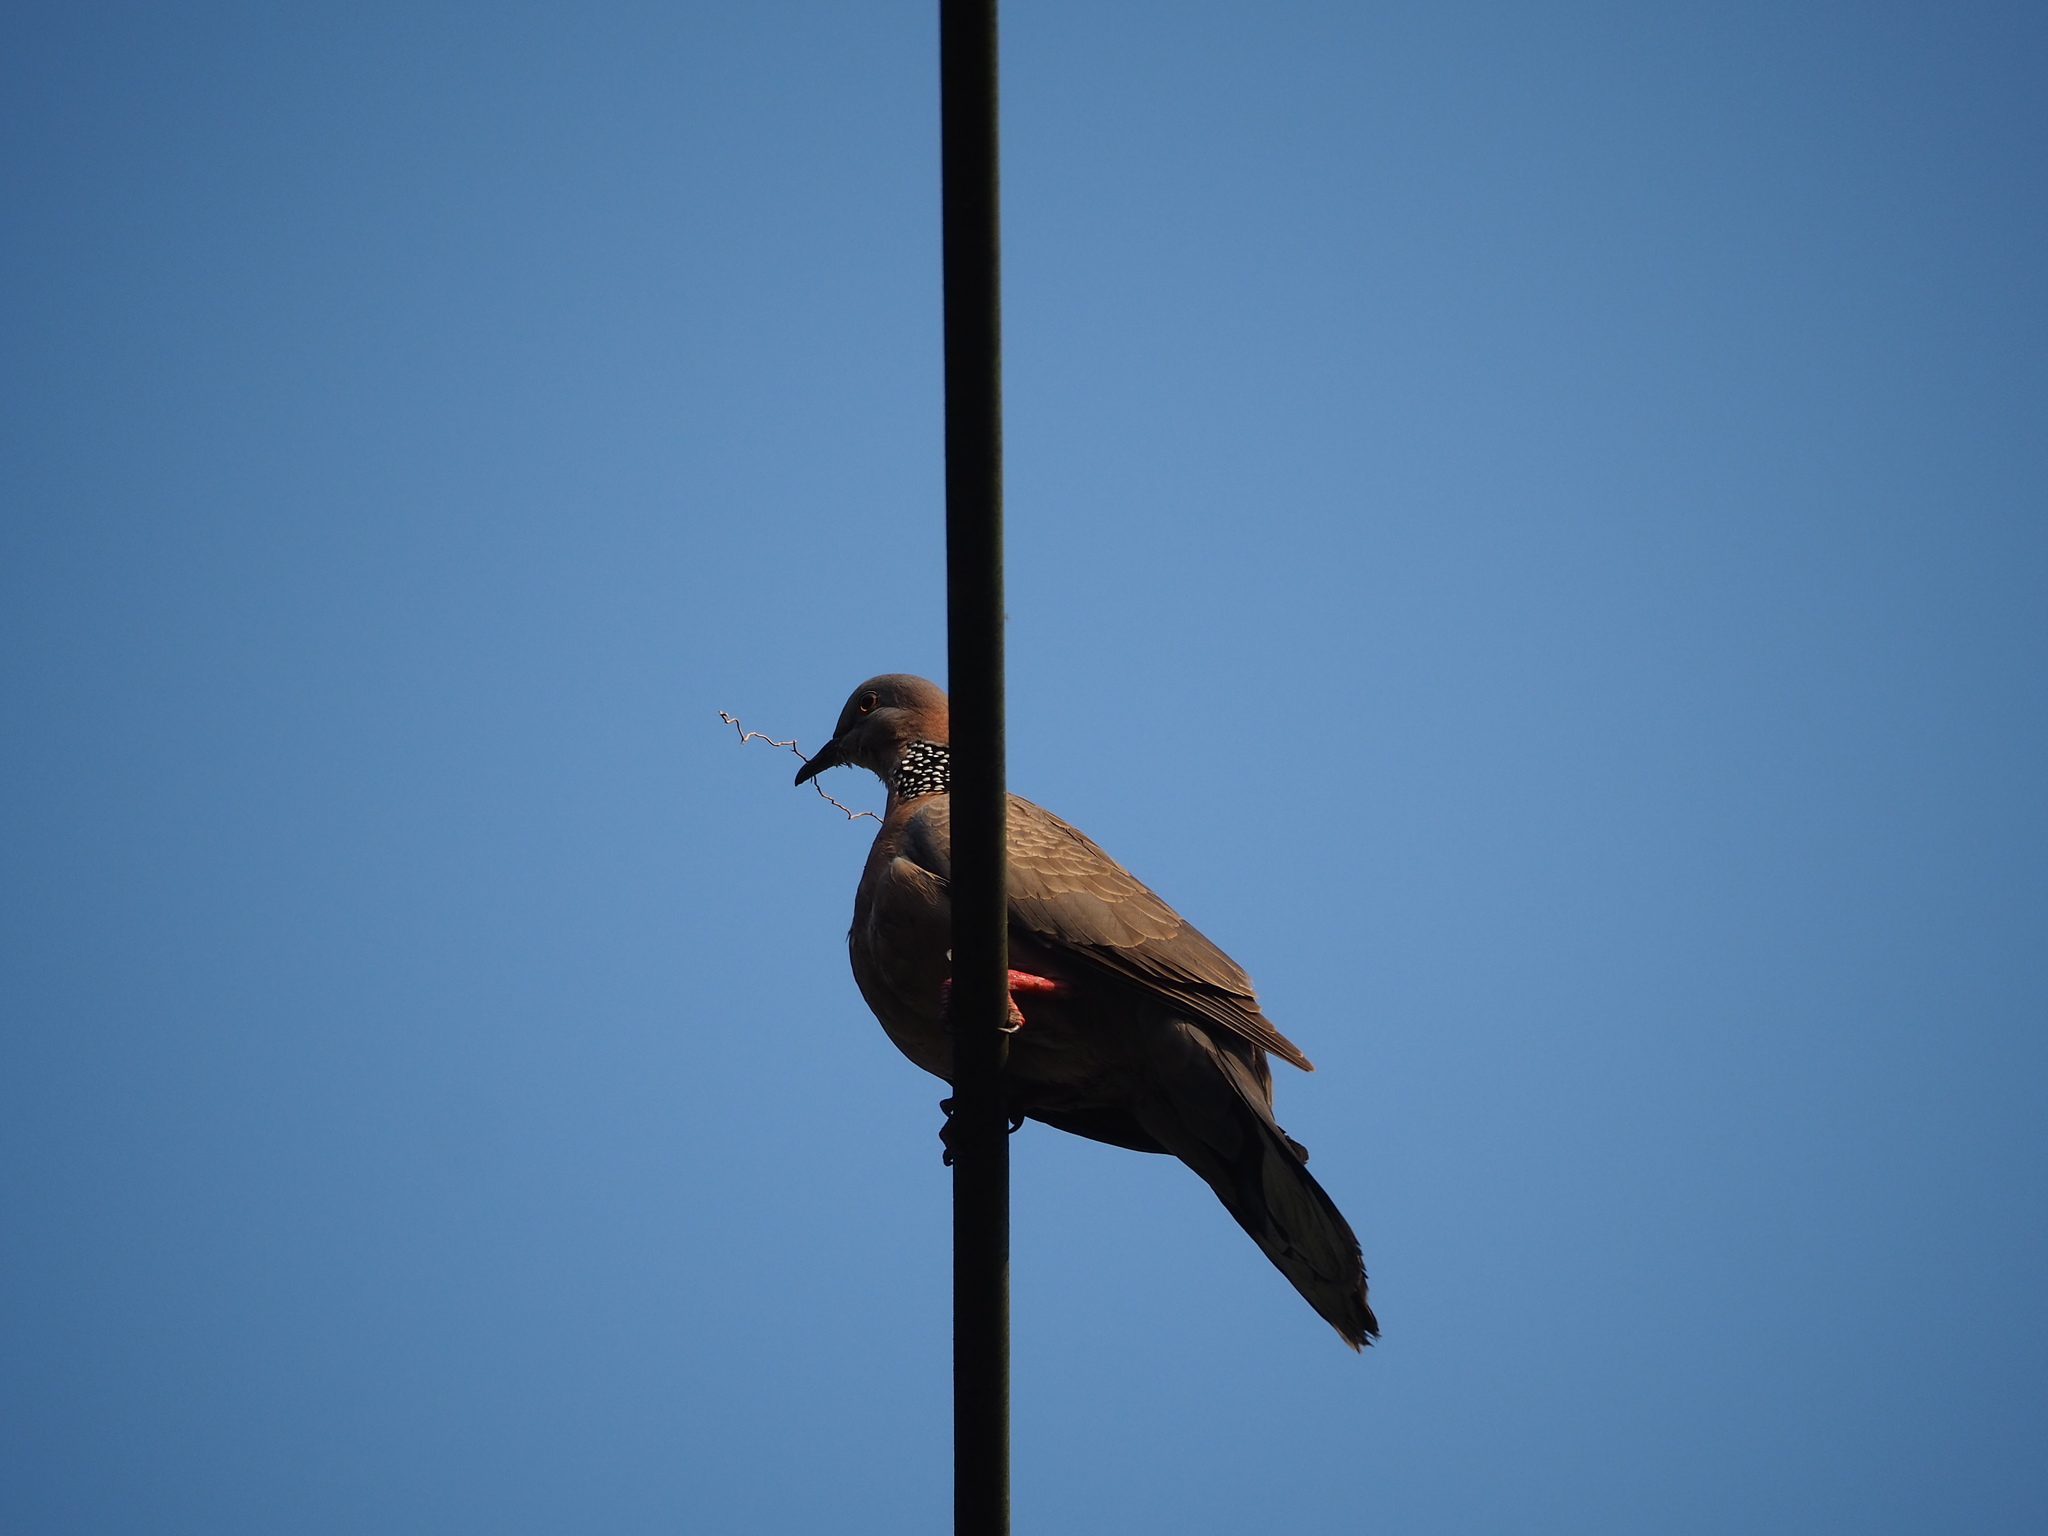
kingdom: Animalia
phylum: Chordata
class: Aves
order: Columbiformes
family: Columbidae
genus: Spilopelia
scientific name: Spilopelia chinensis
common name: Spotted dove
